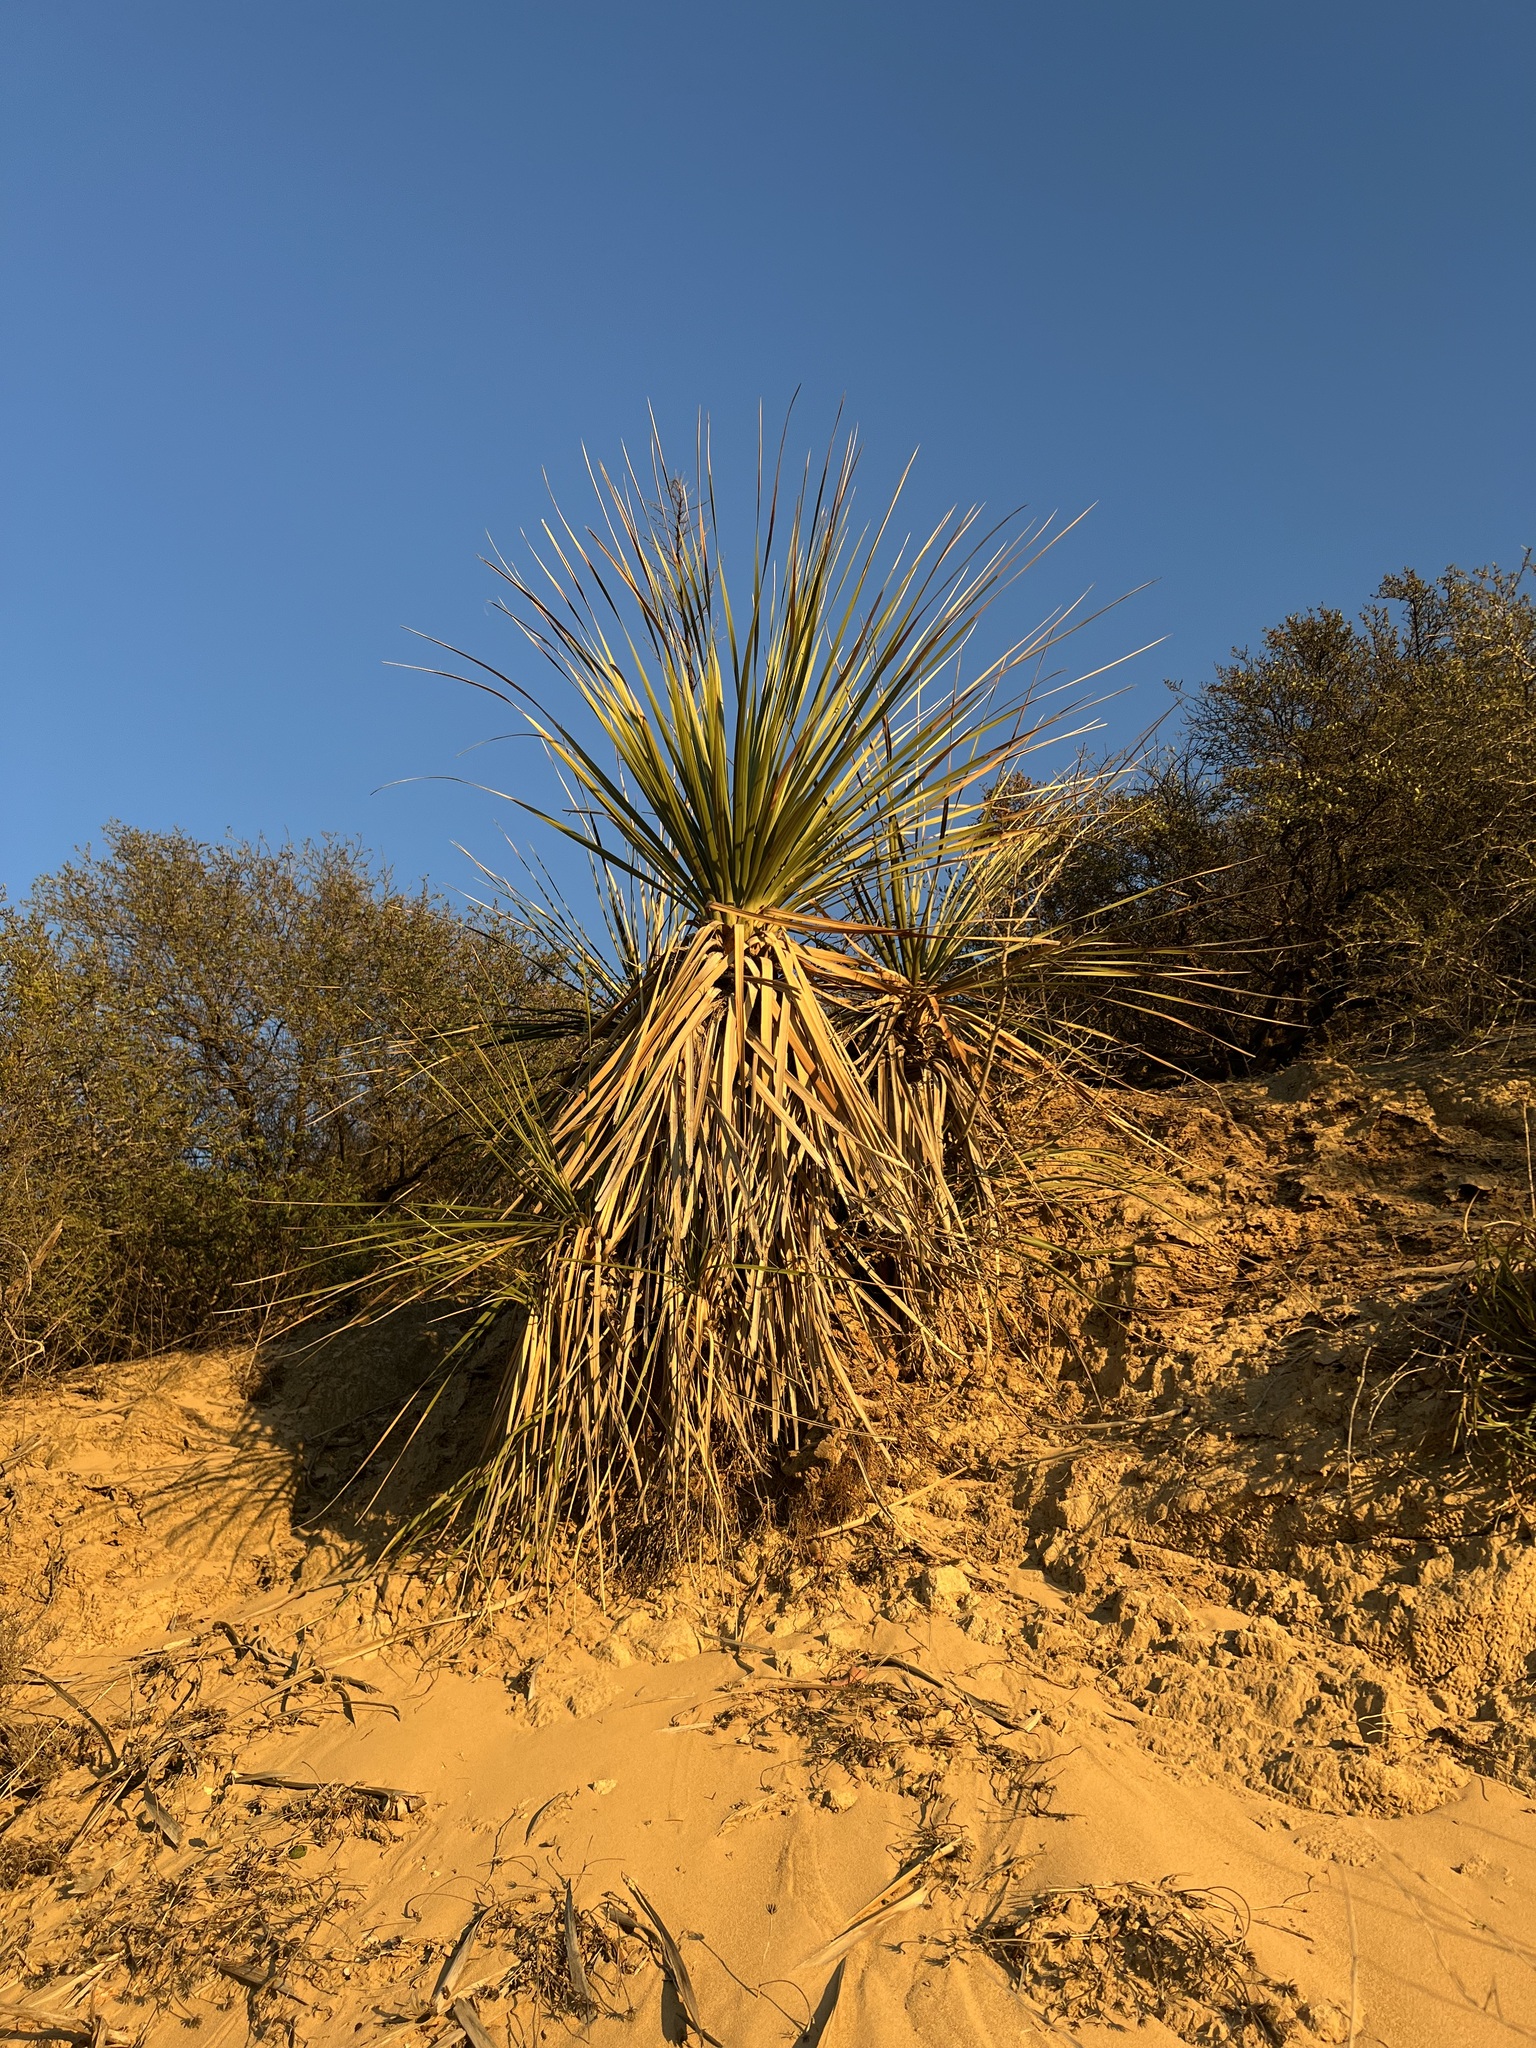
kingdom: Plantae
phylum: Tracheophyta
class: Liliopsida
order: Asparagales
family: Asparagaceae
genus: Nolina
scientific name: Nolina cismontana
